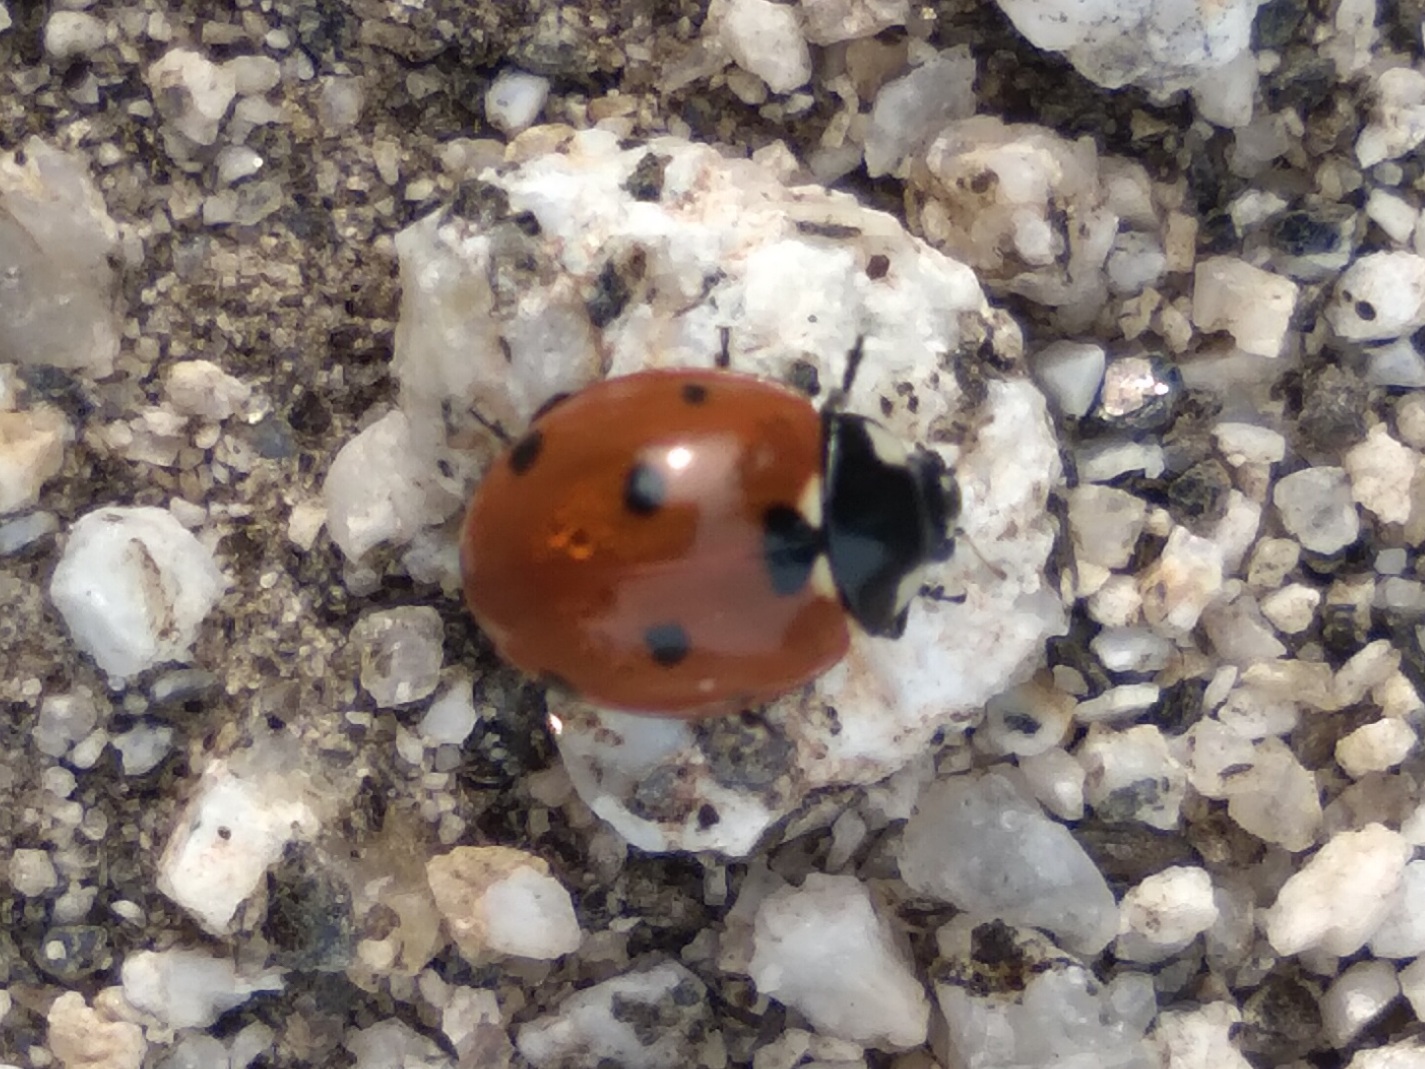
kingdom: Animalia
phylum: Arthropoda
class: Insecta
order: Coleoptera
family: Coccinellidae
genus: Coccinella
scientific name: Coccinella septempunctata
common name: Sevenspotted lady beetle
